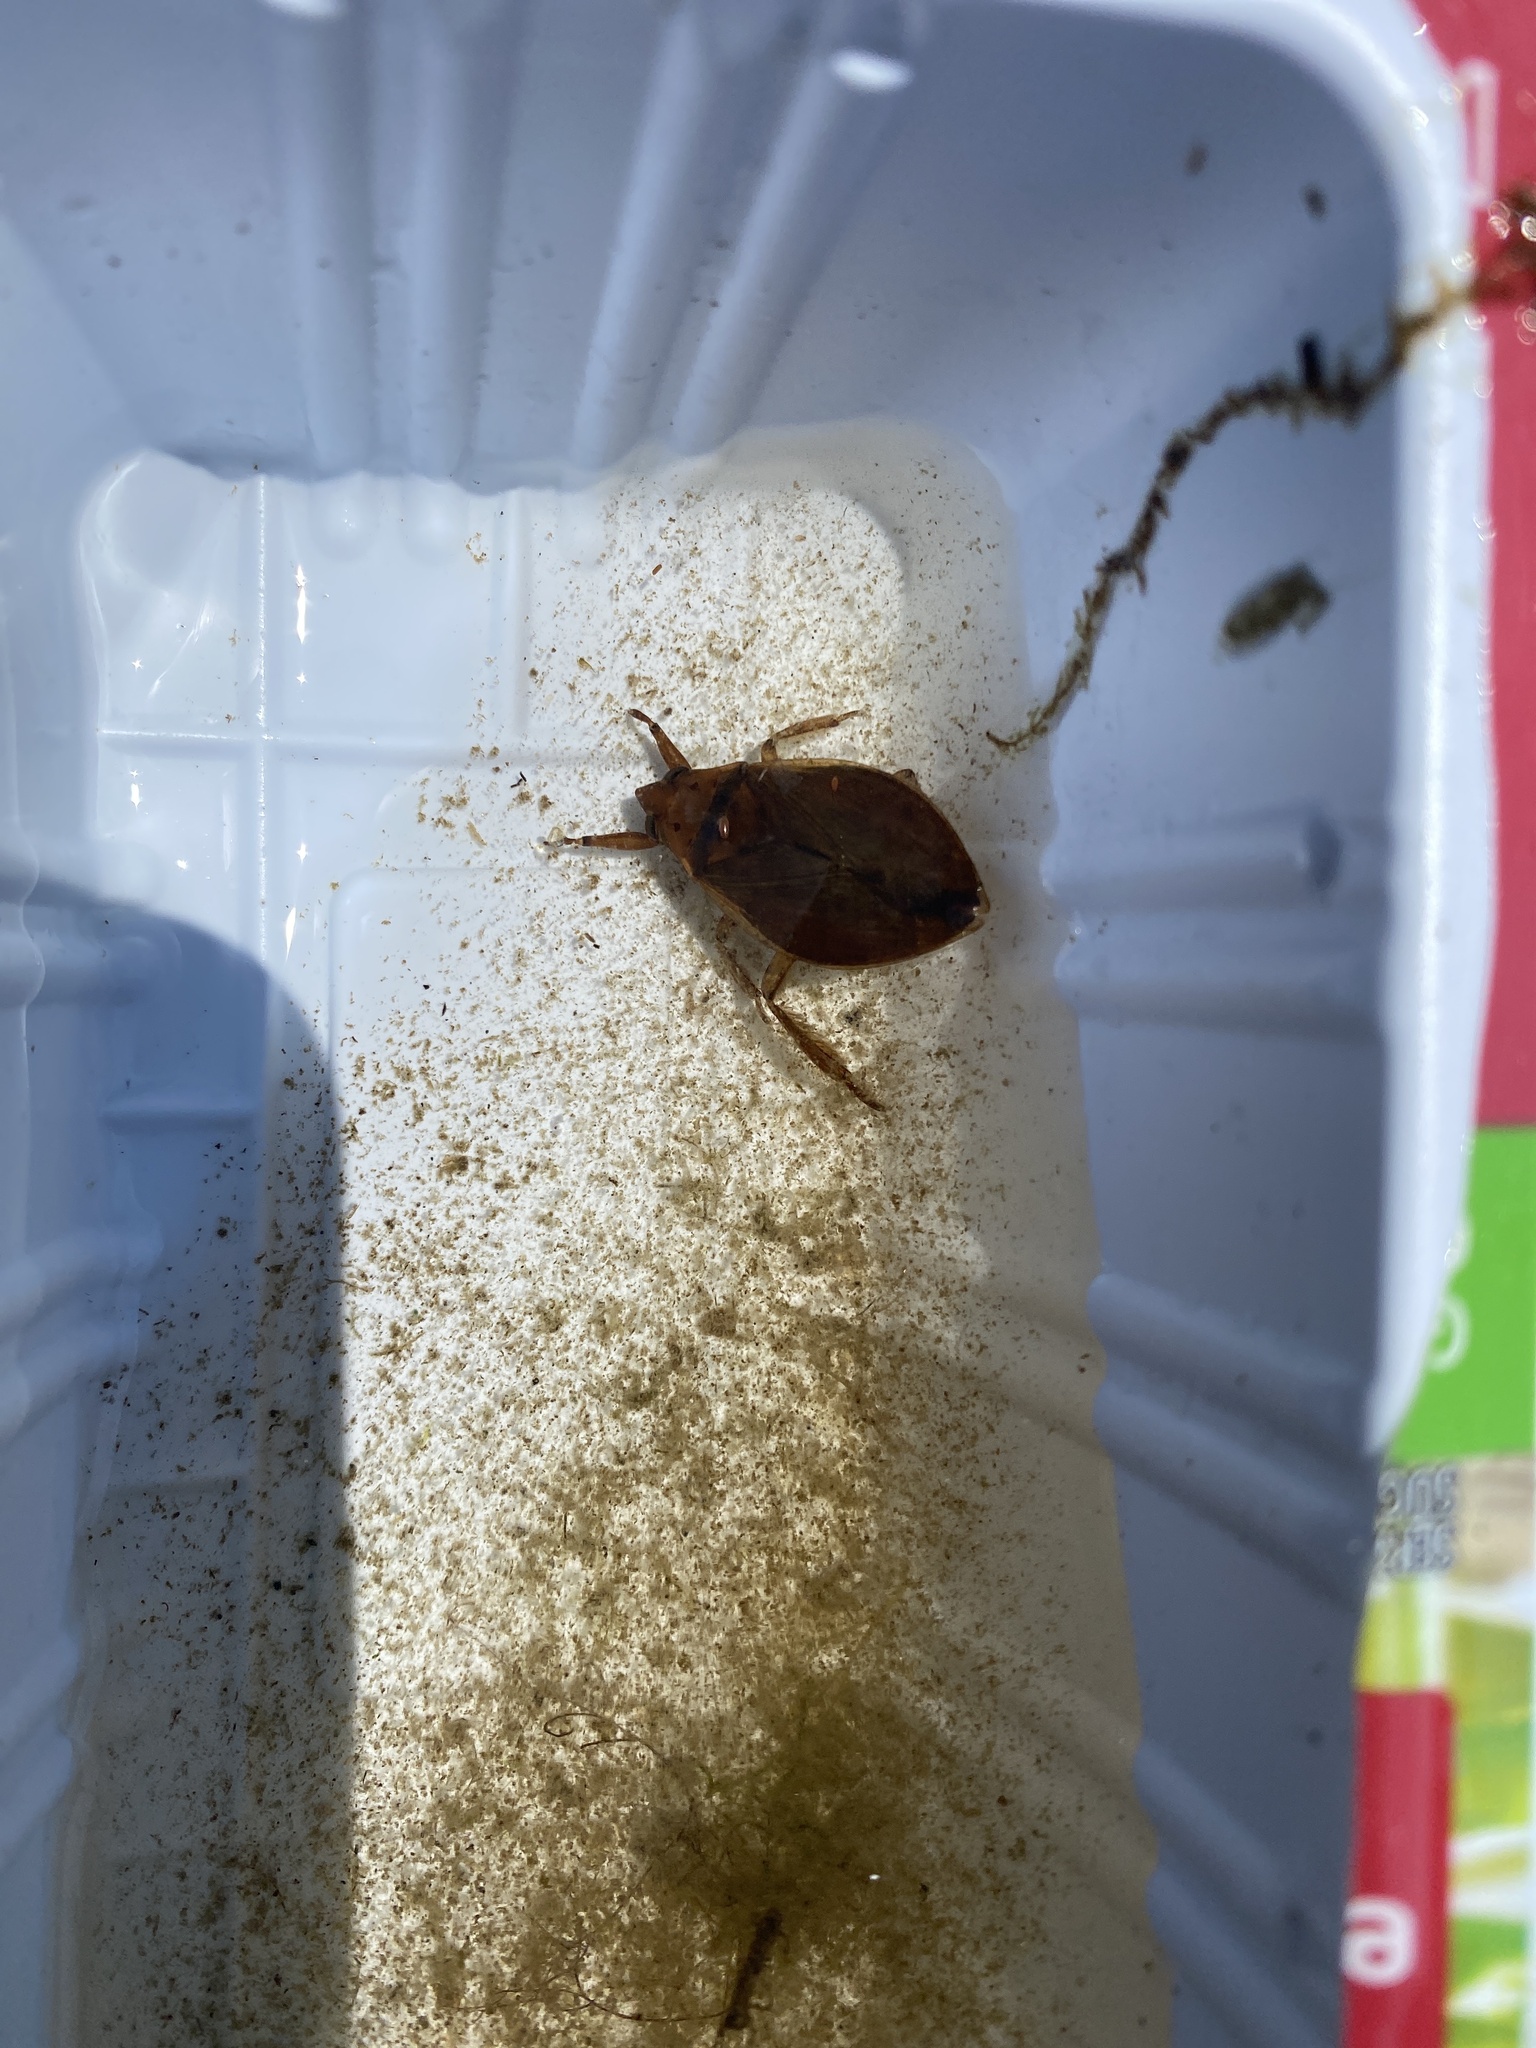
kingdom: Animalia
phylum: Arthropoda
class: Insecta
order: Hemiptera
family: Belostomatidae
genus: Belostoma
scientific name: Belostoma
